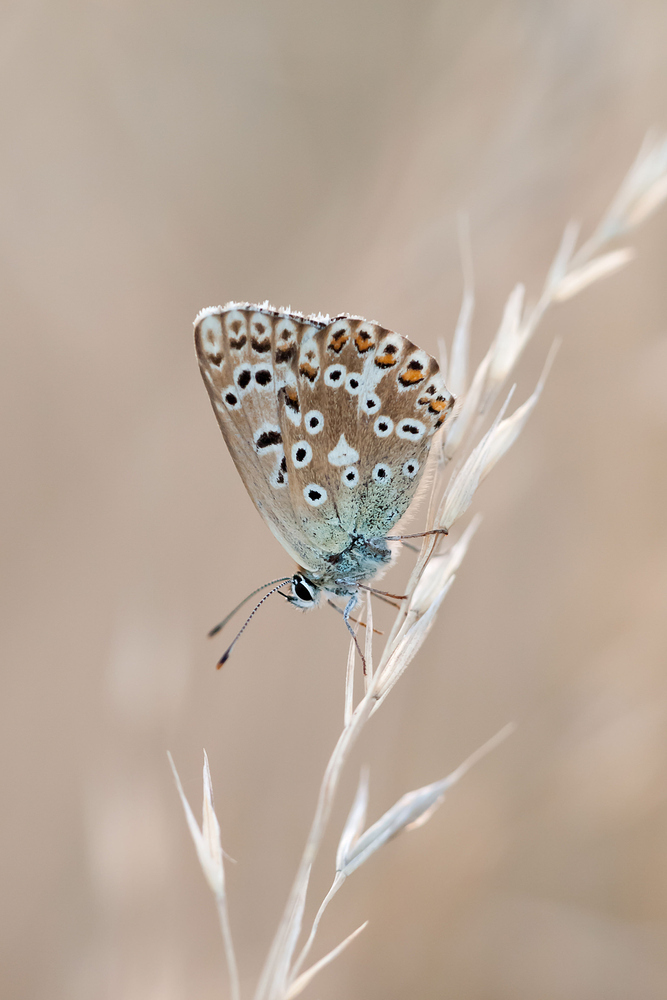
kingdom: Animalia
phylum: Arthropoda
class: Insecta
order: Lepidoptera
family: Lycaenidae
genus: Lysandra
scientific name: Lysandra coridon
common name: Chalkhill blue
